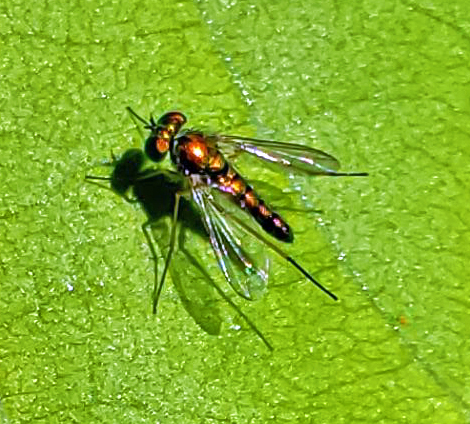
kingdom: Animalia
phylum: Arthropoda
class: Insecta
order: Diptera
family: Dolichopodidae
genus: Condylostylus
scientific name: Condylostylus
